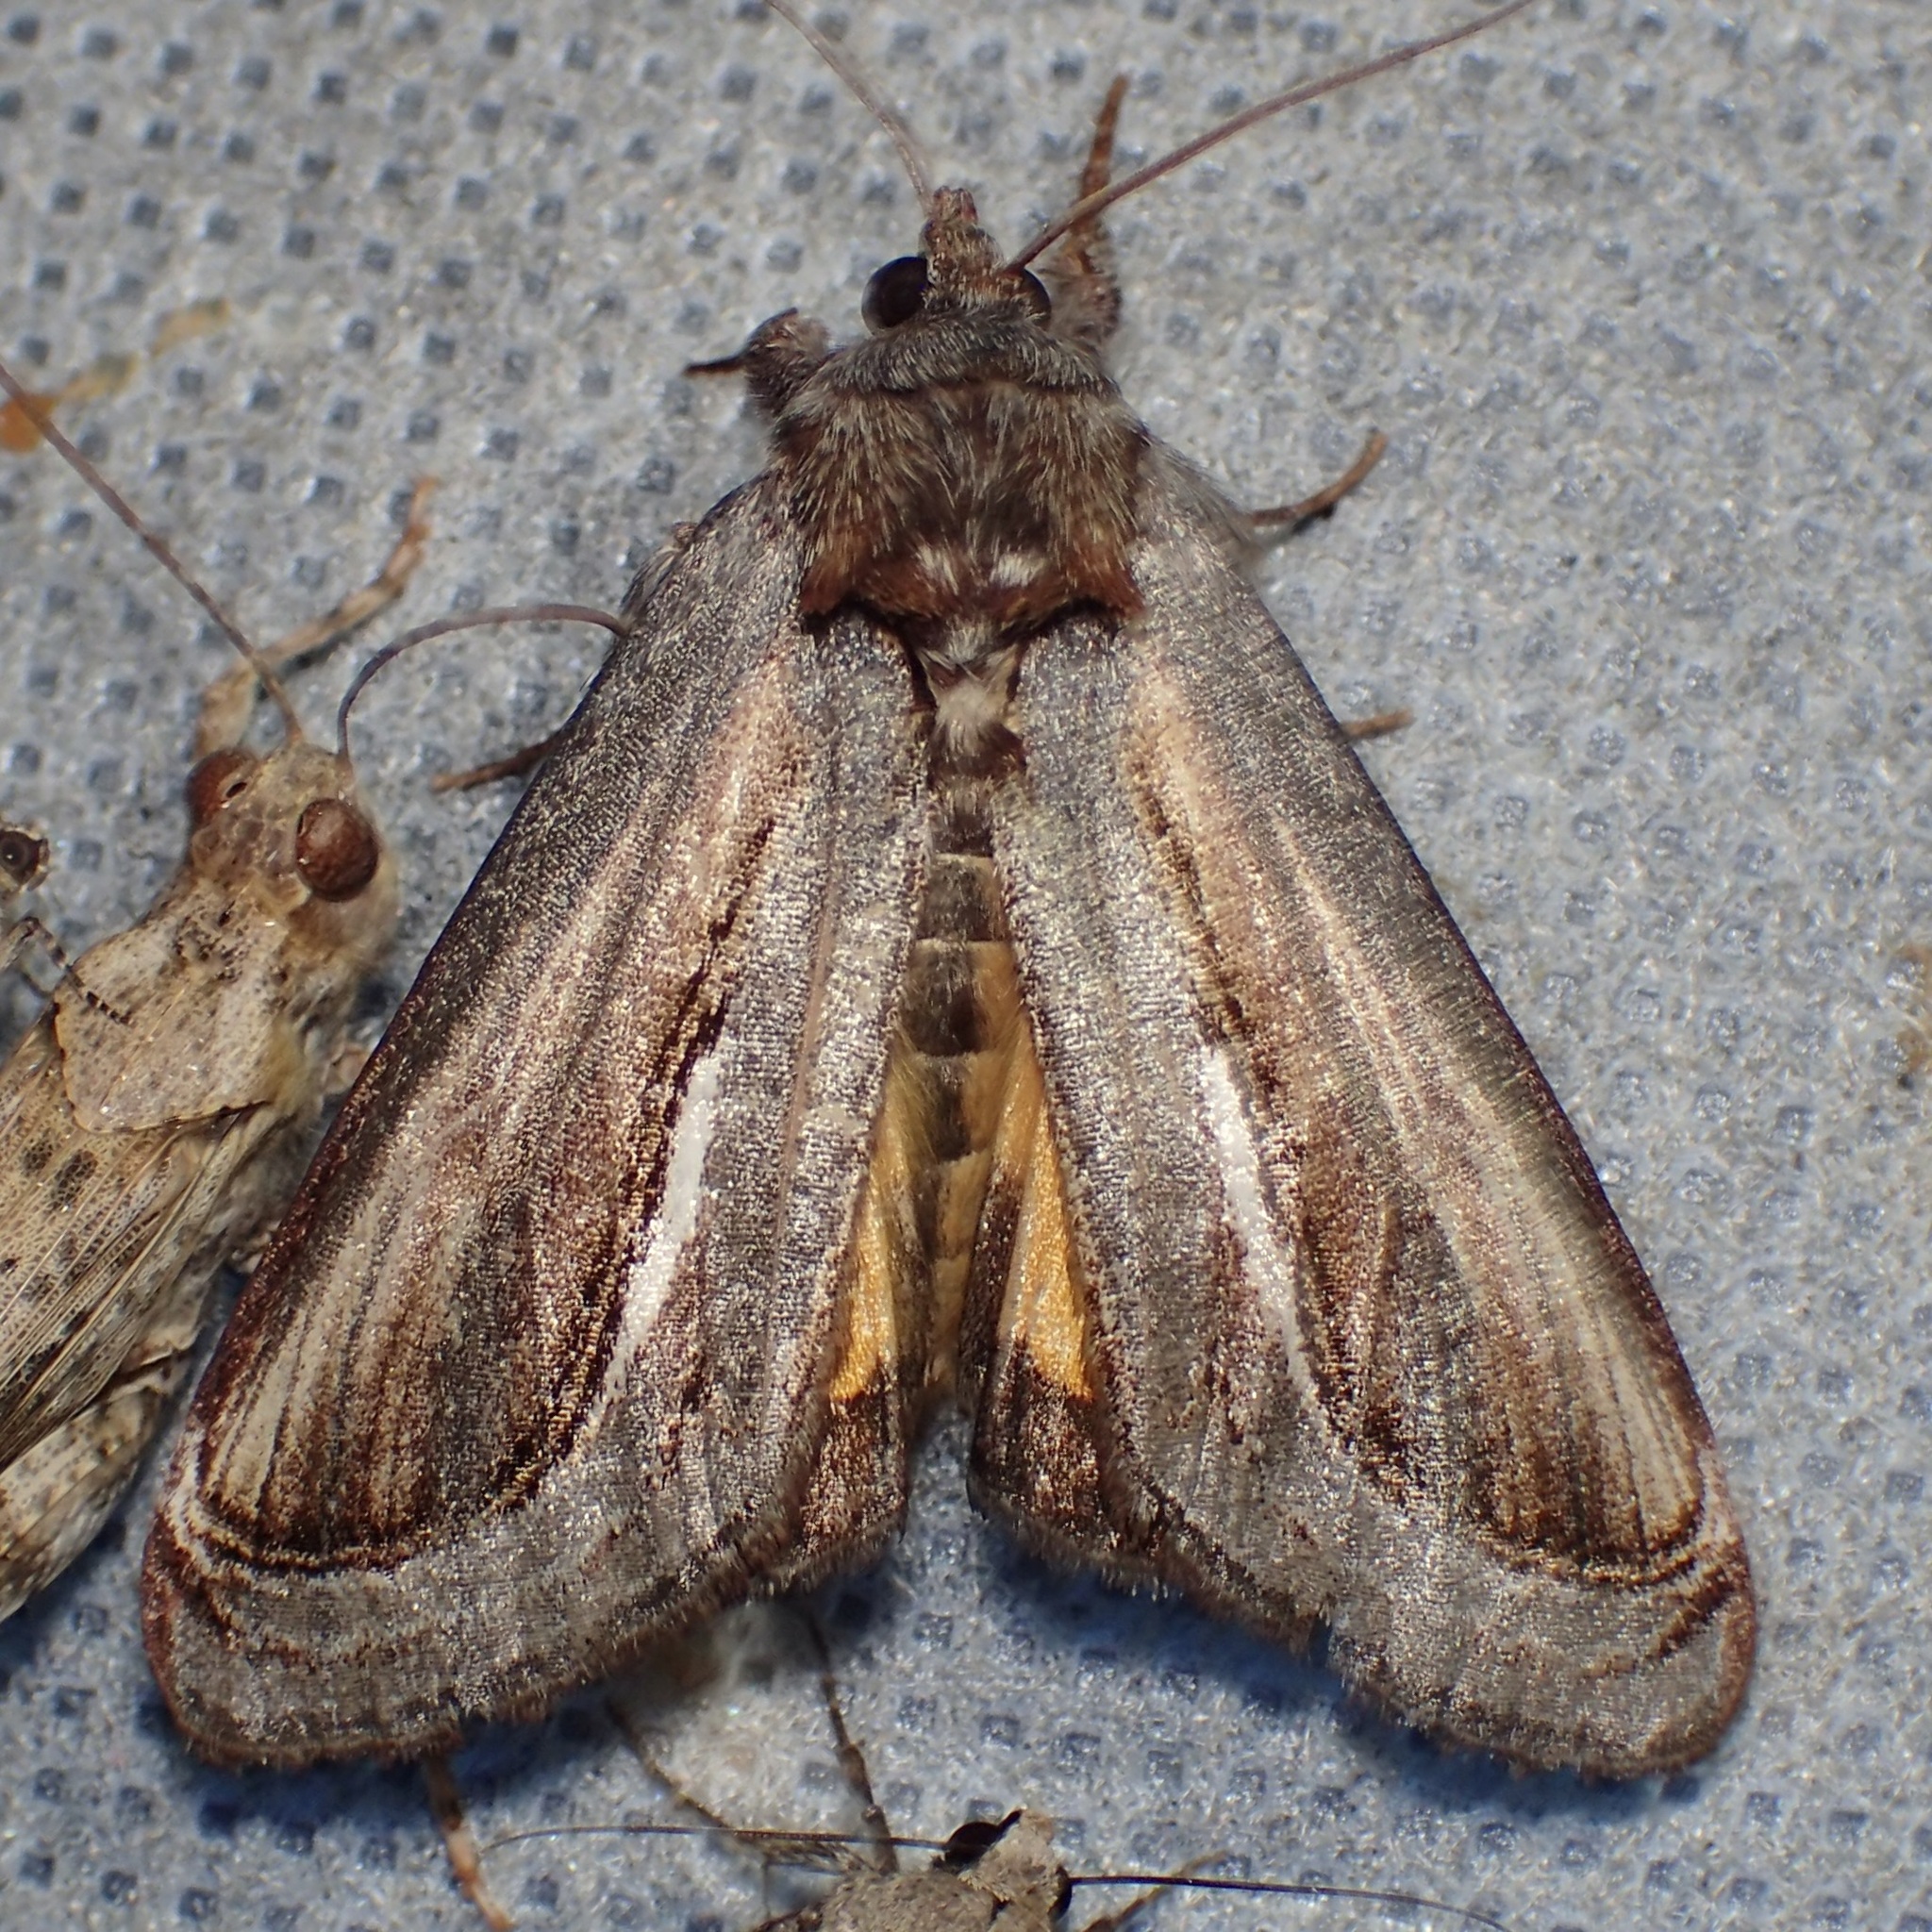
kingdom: Animalia
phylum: Arthropoda
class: Insecta
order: Lepidoptera
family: Noctuidae
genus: Gerrodes
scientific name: Gerrodes minatea
